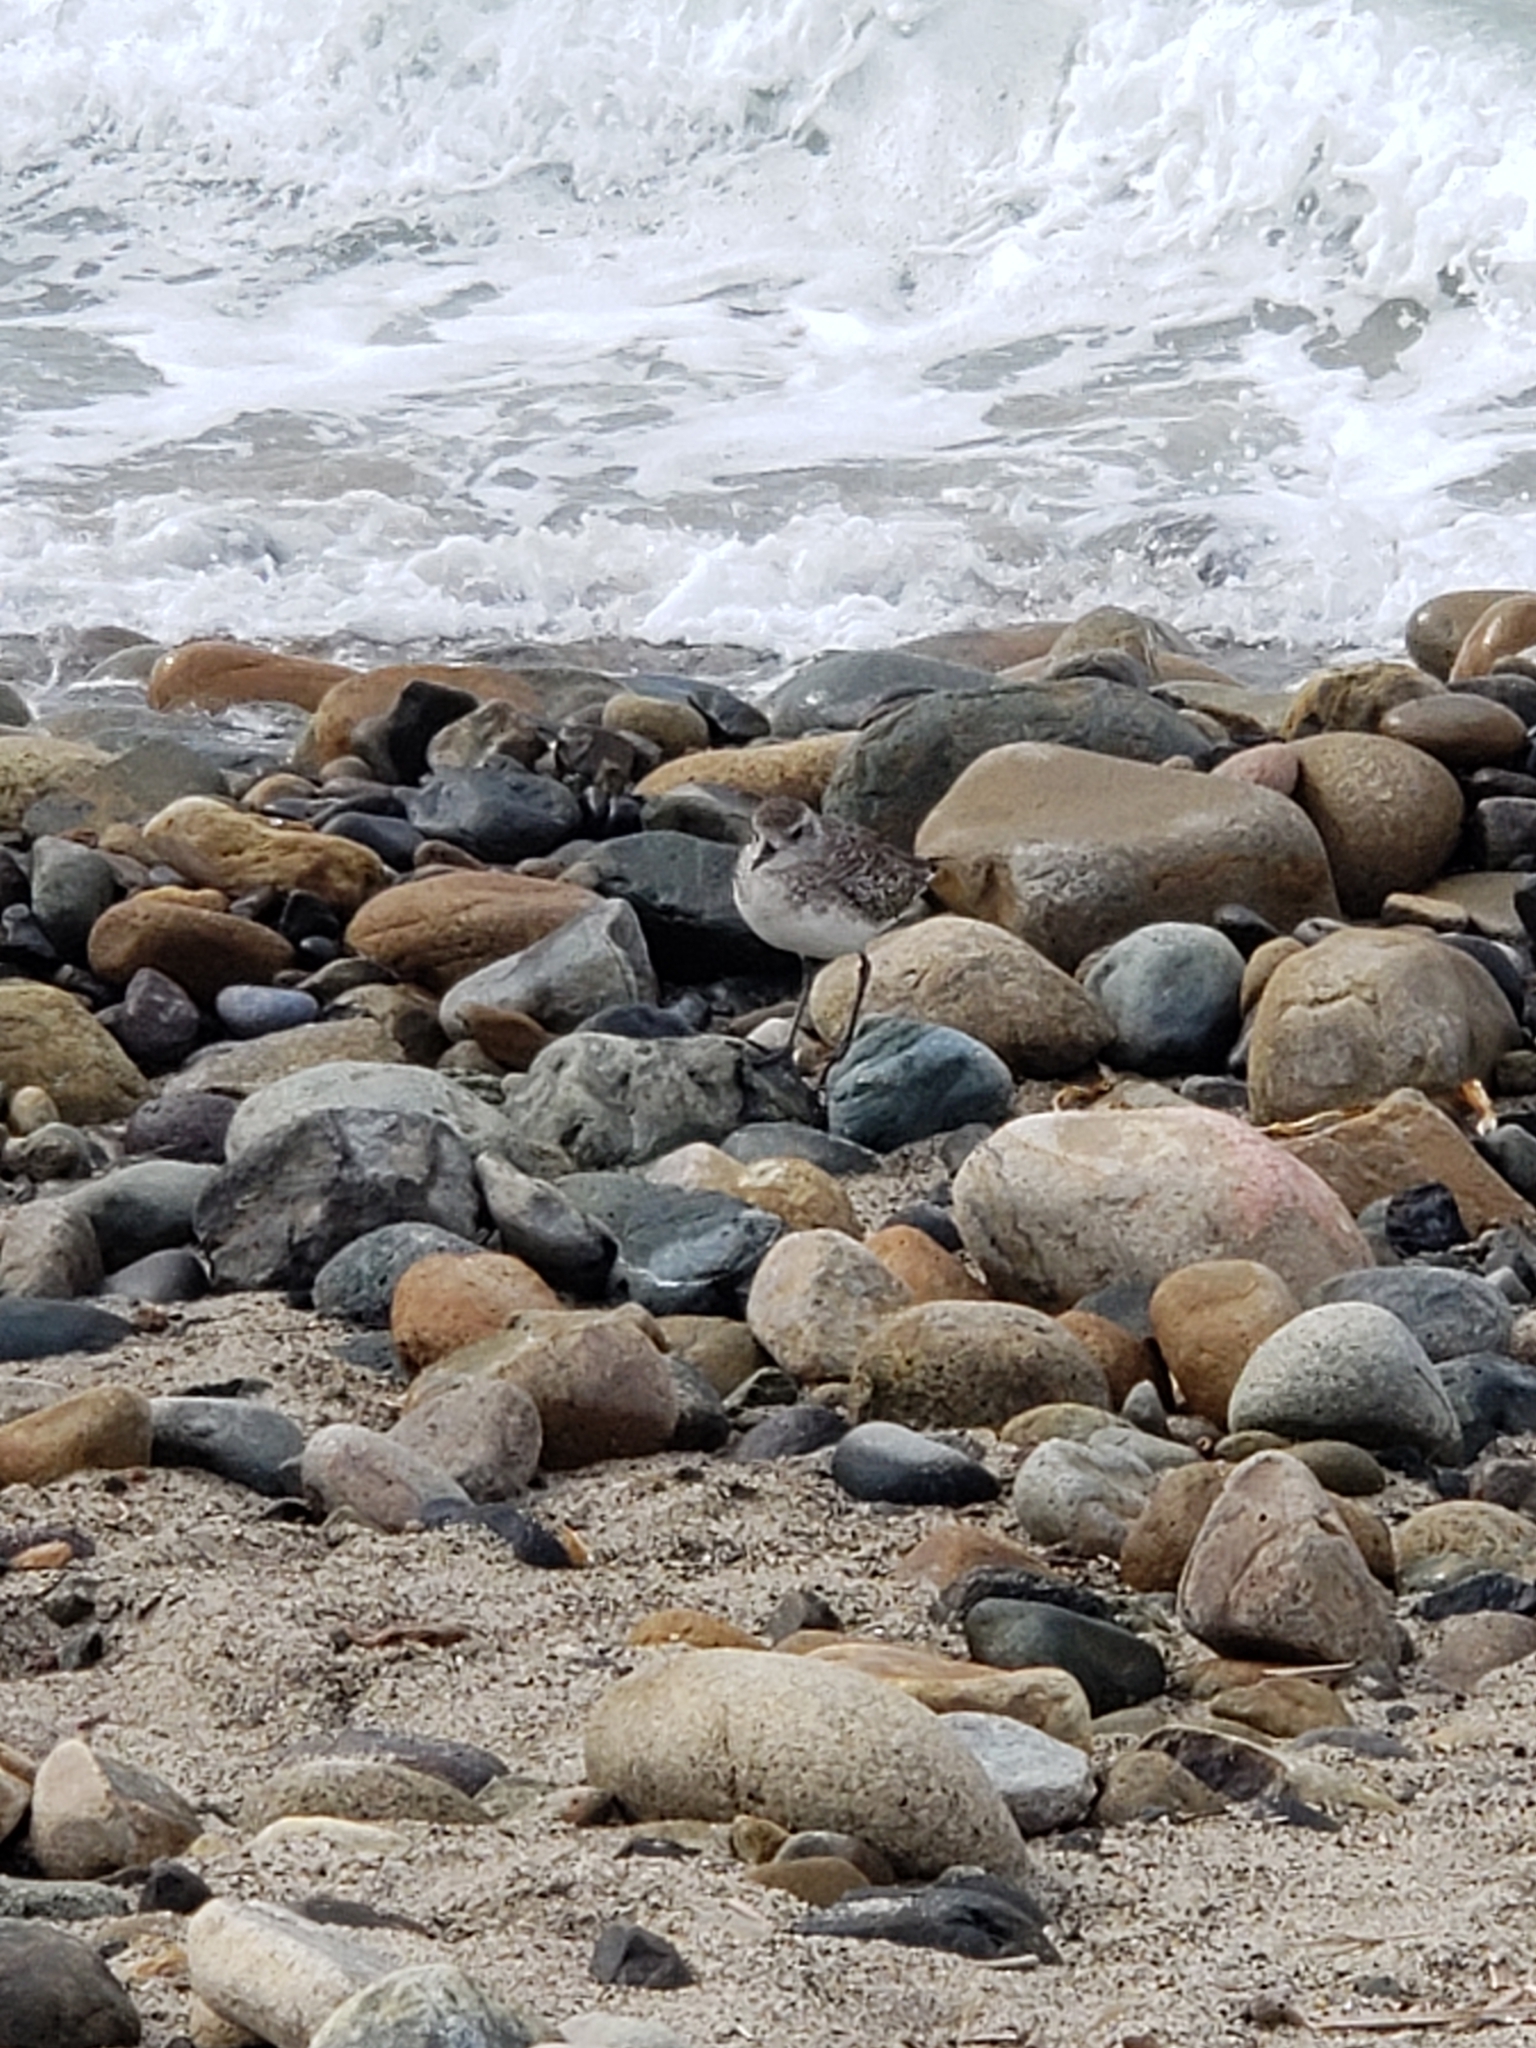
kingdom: Animalia
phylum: Chordata
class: Aves
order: Charadriiformes
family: Charadriidae
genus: Pluvialis
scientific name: Pluvialis squatarola
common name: Grey plover
